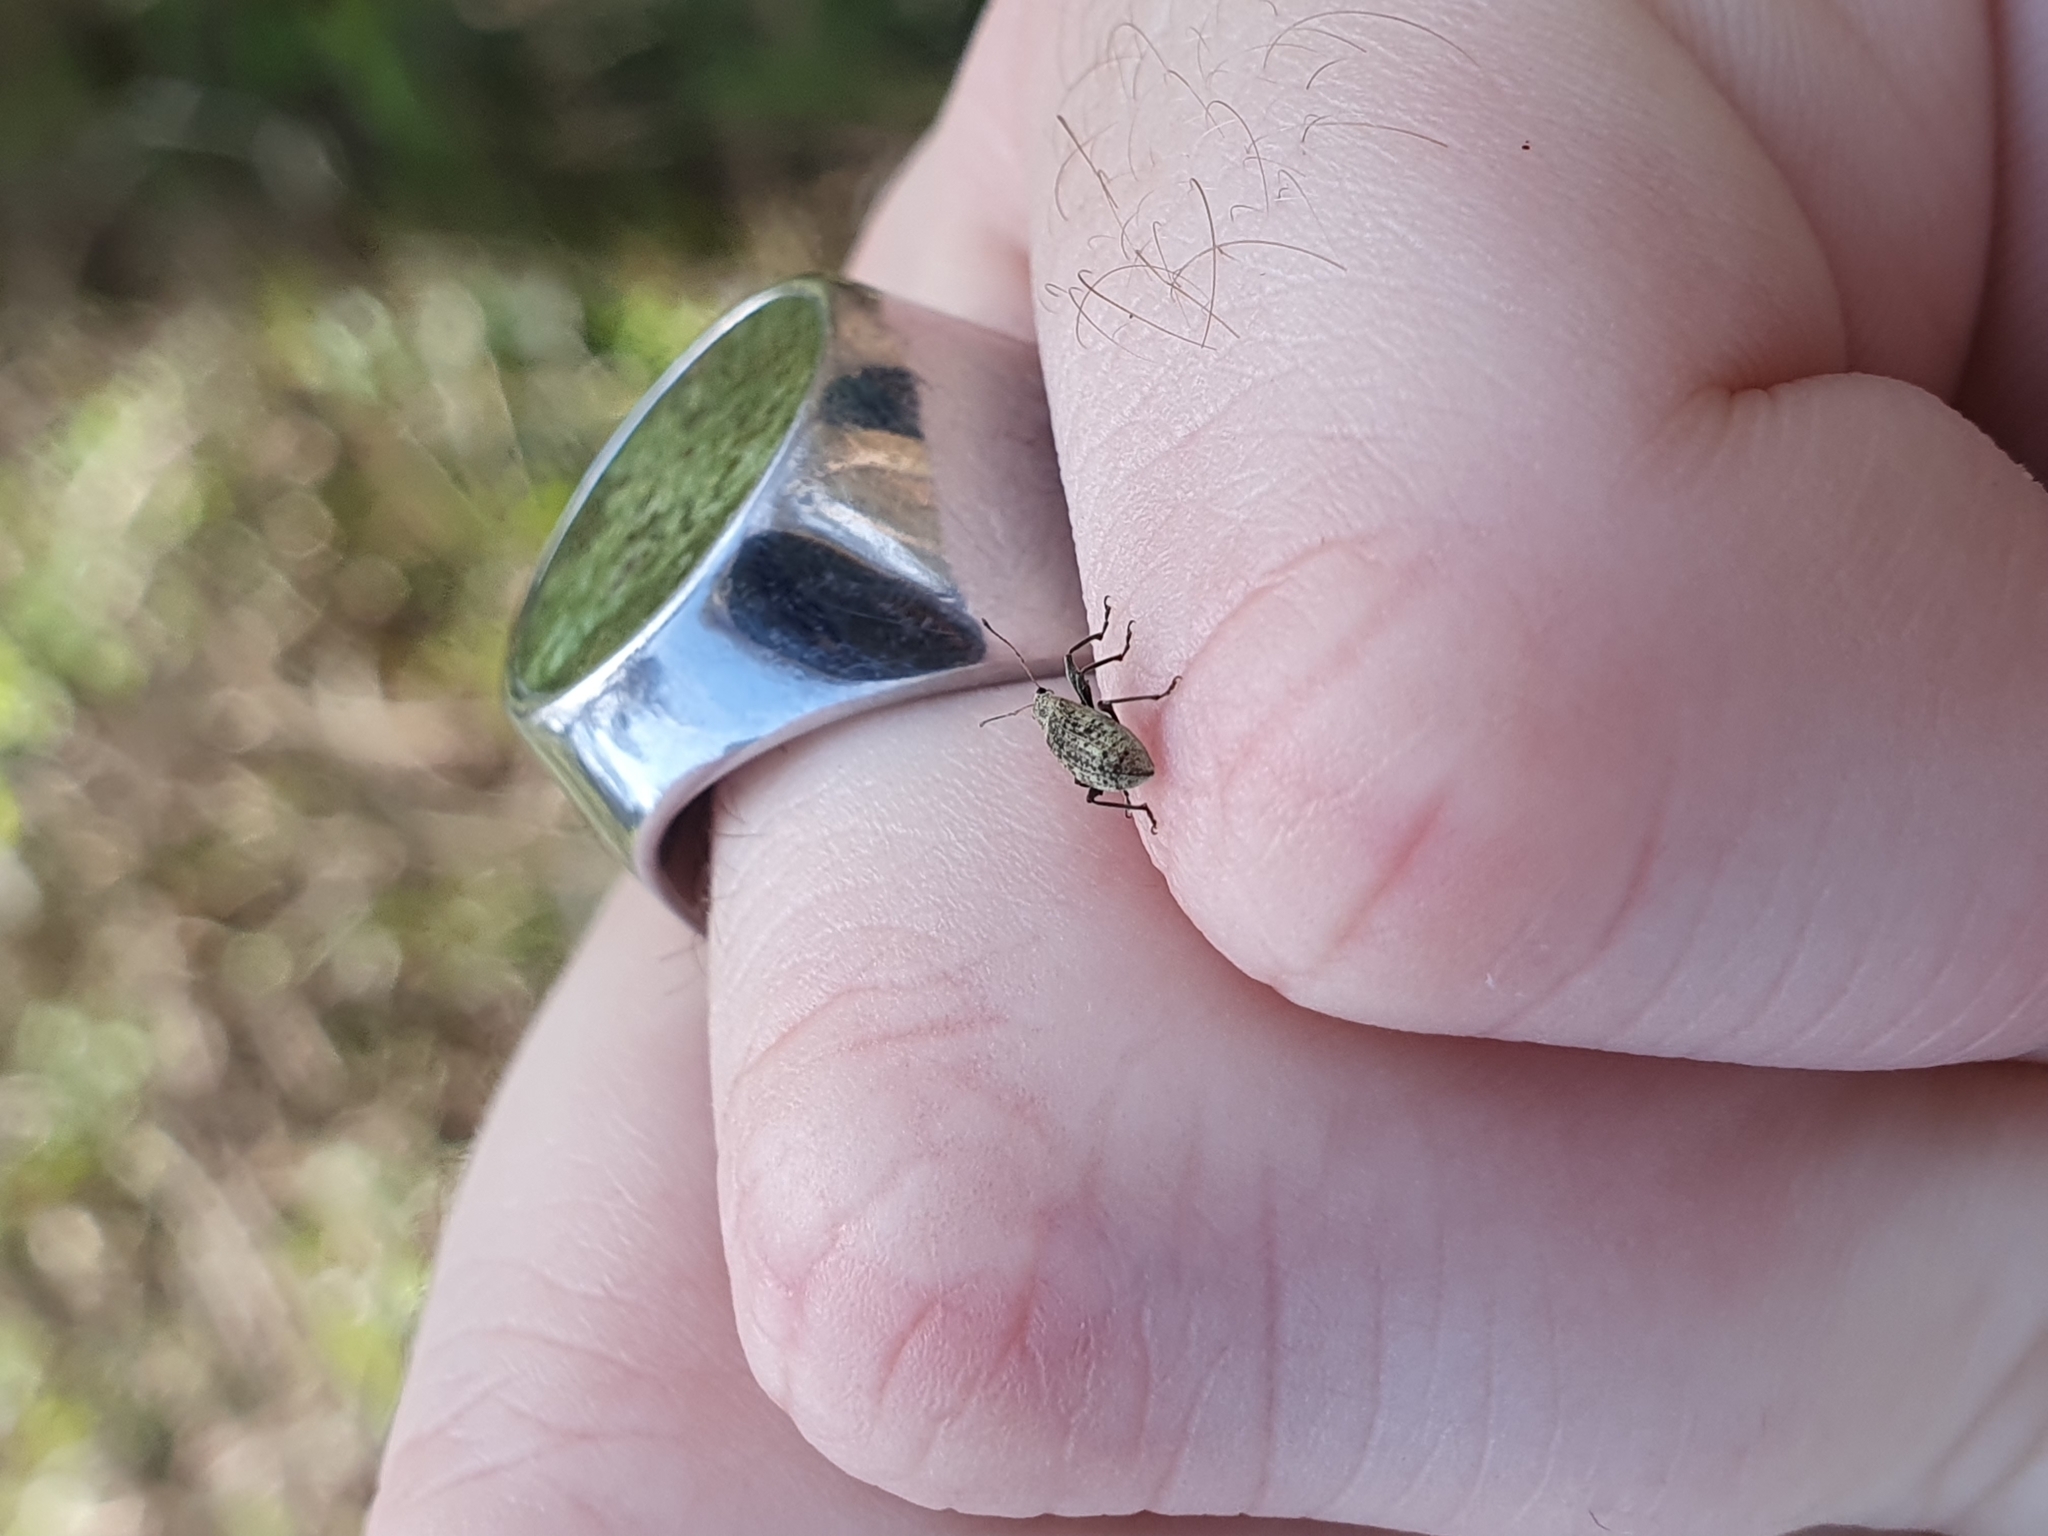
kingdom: Animalia
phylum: Arthropoda
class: Insecta
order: Coleoptera
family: Curculionidae
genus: Polydrusus
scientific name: Polydrusus cervinus
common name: Weevil
